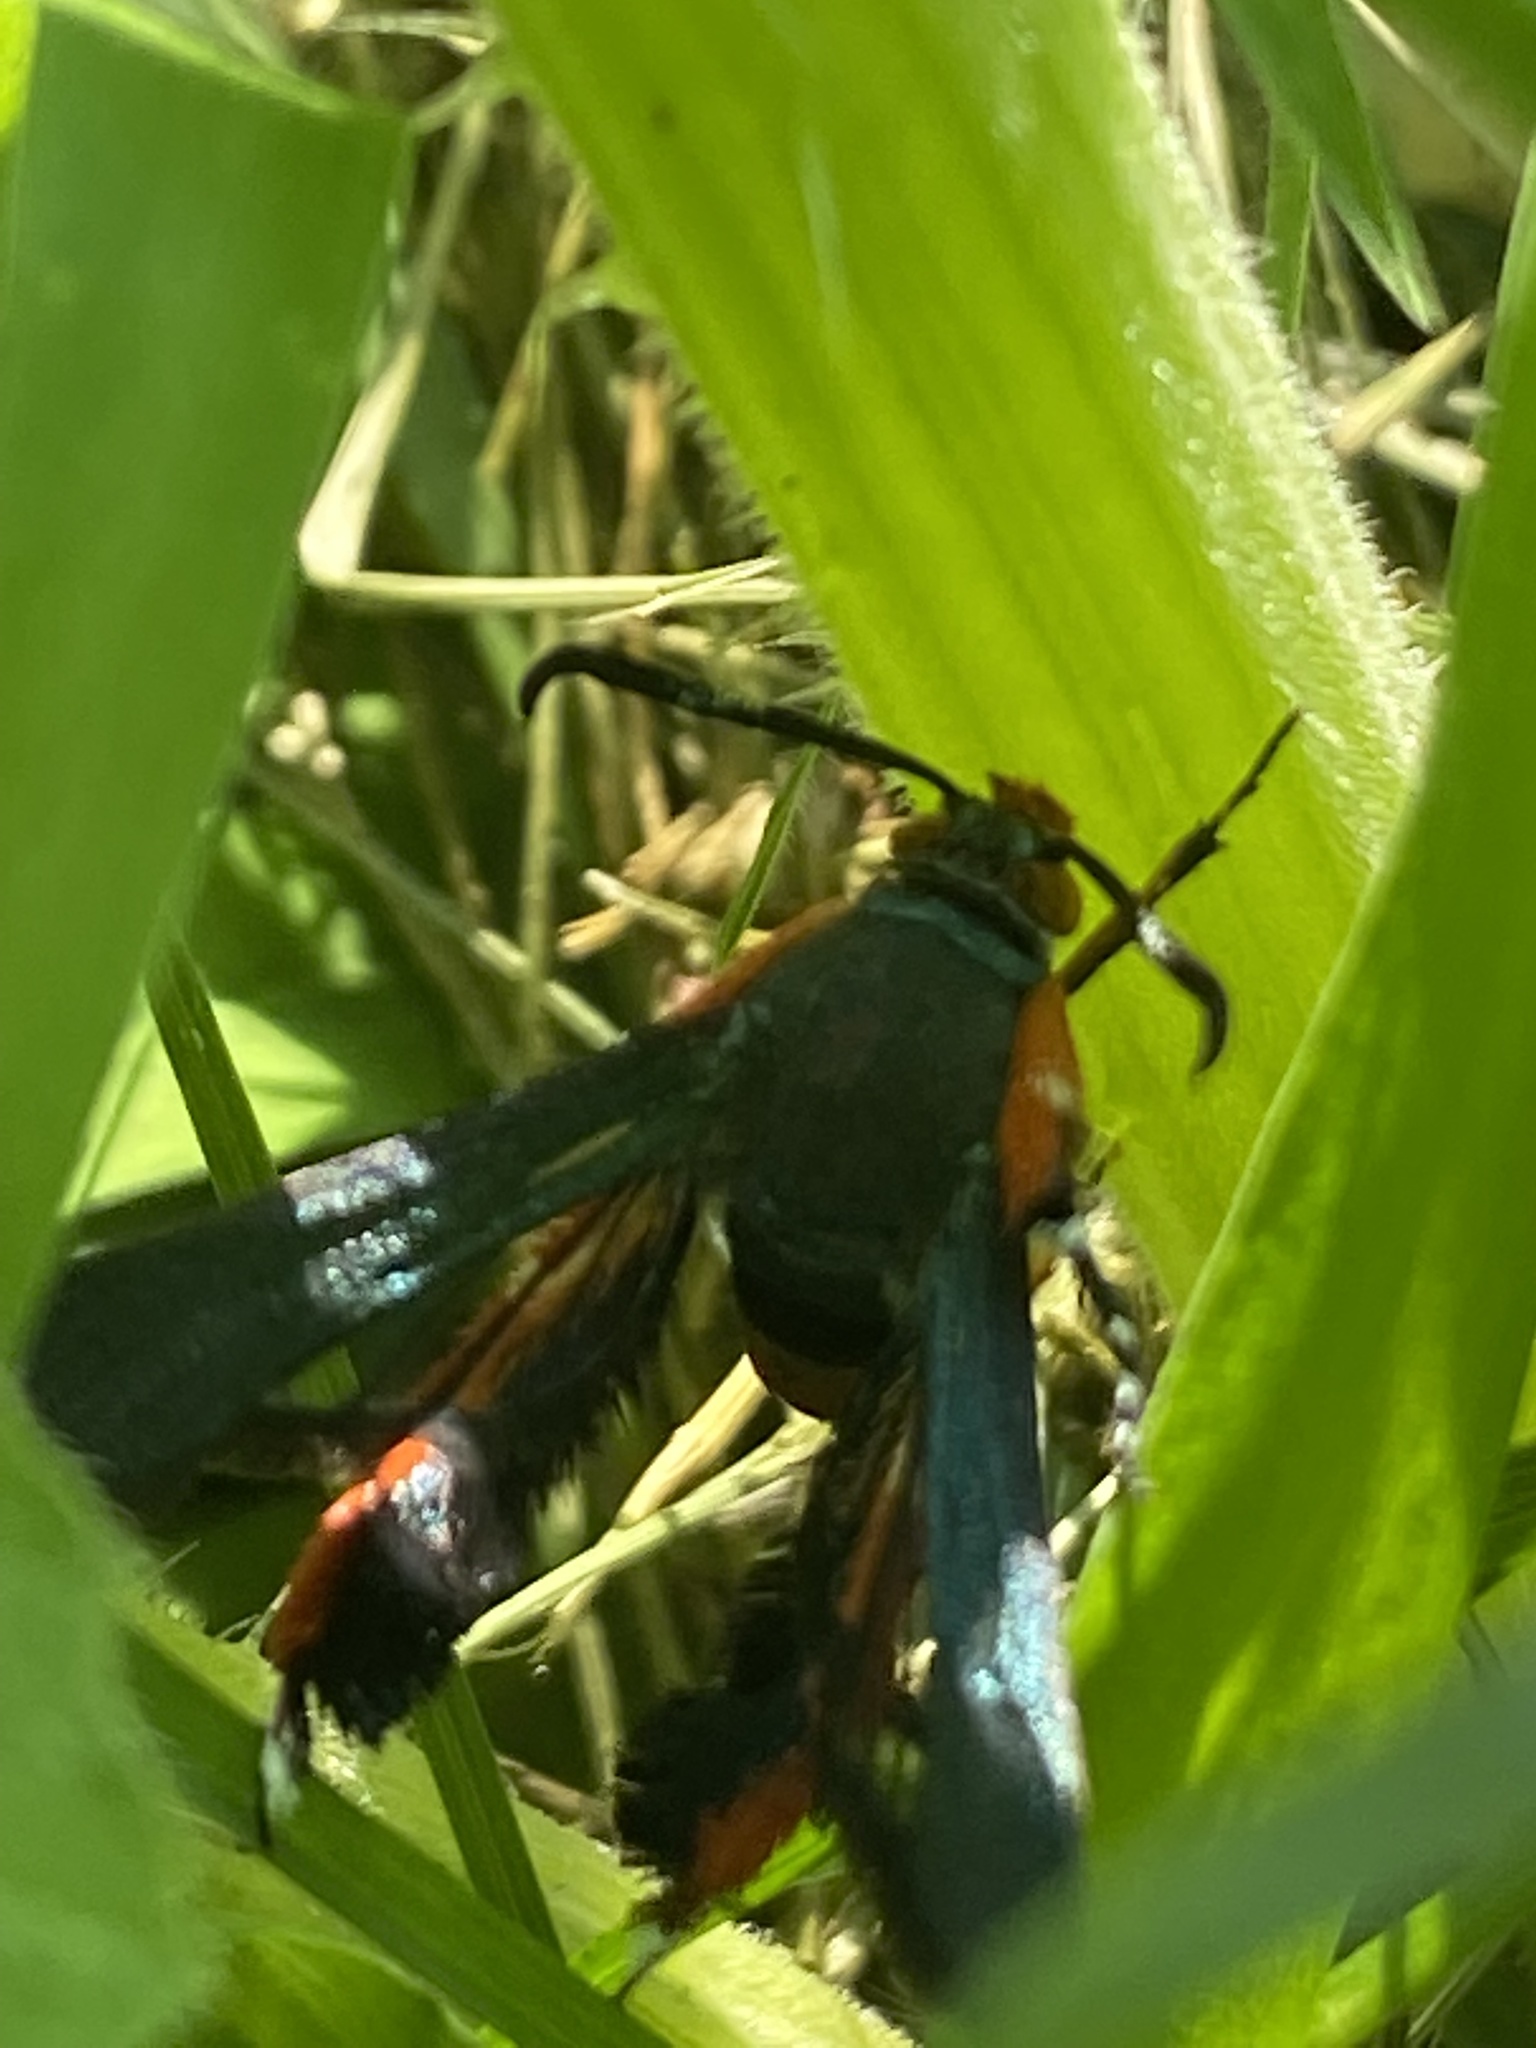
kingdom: Animalia
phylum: Arthropoda
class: Insecta
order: Lepidoptera
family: Sesiidae
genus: Eichlinia
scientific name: Eichlinia cucurbitae
